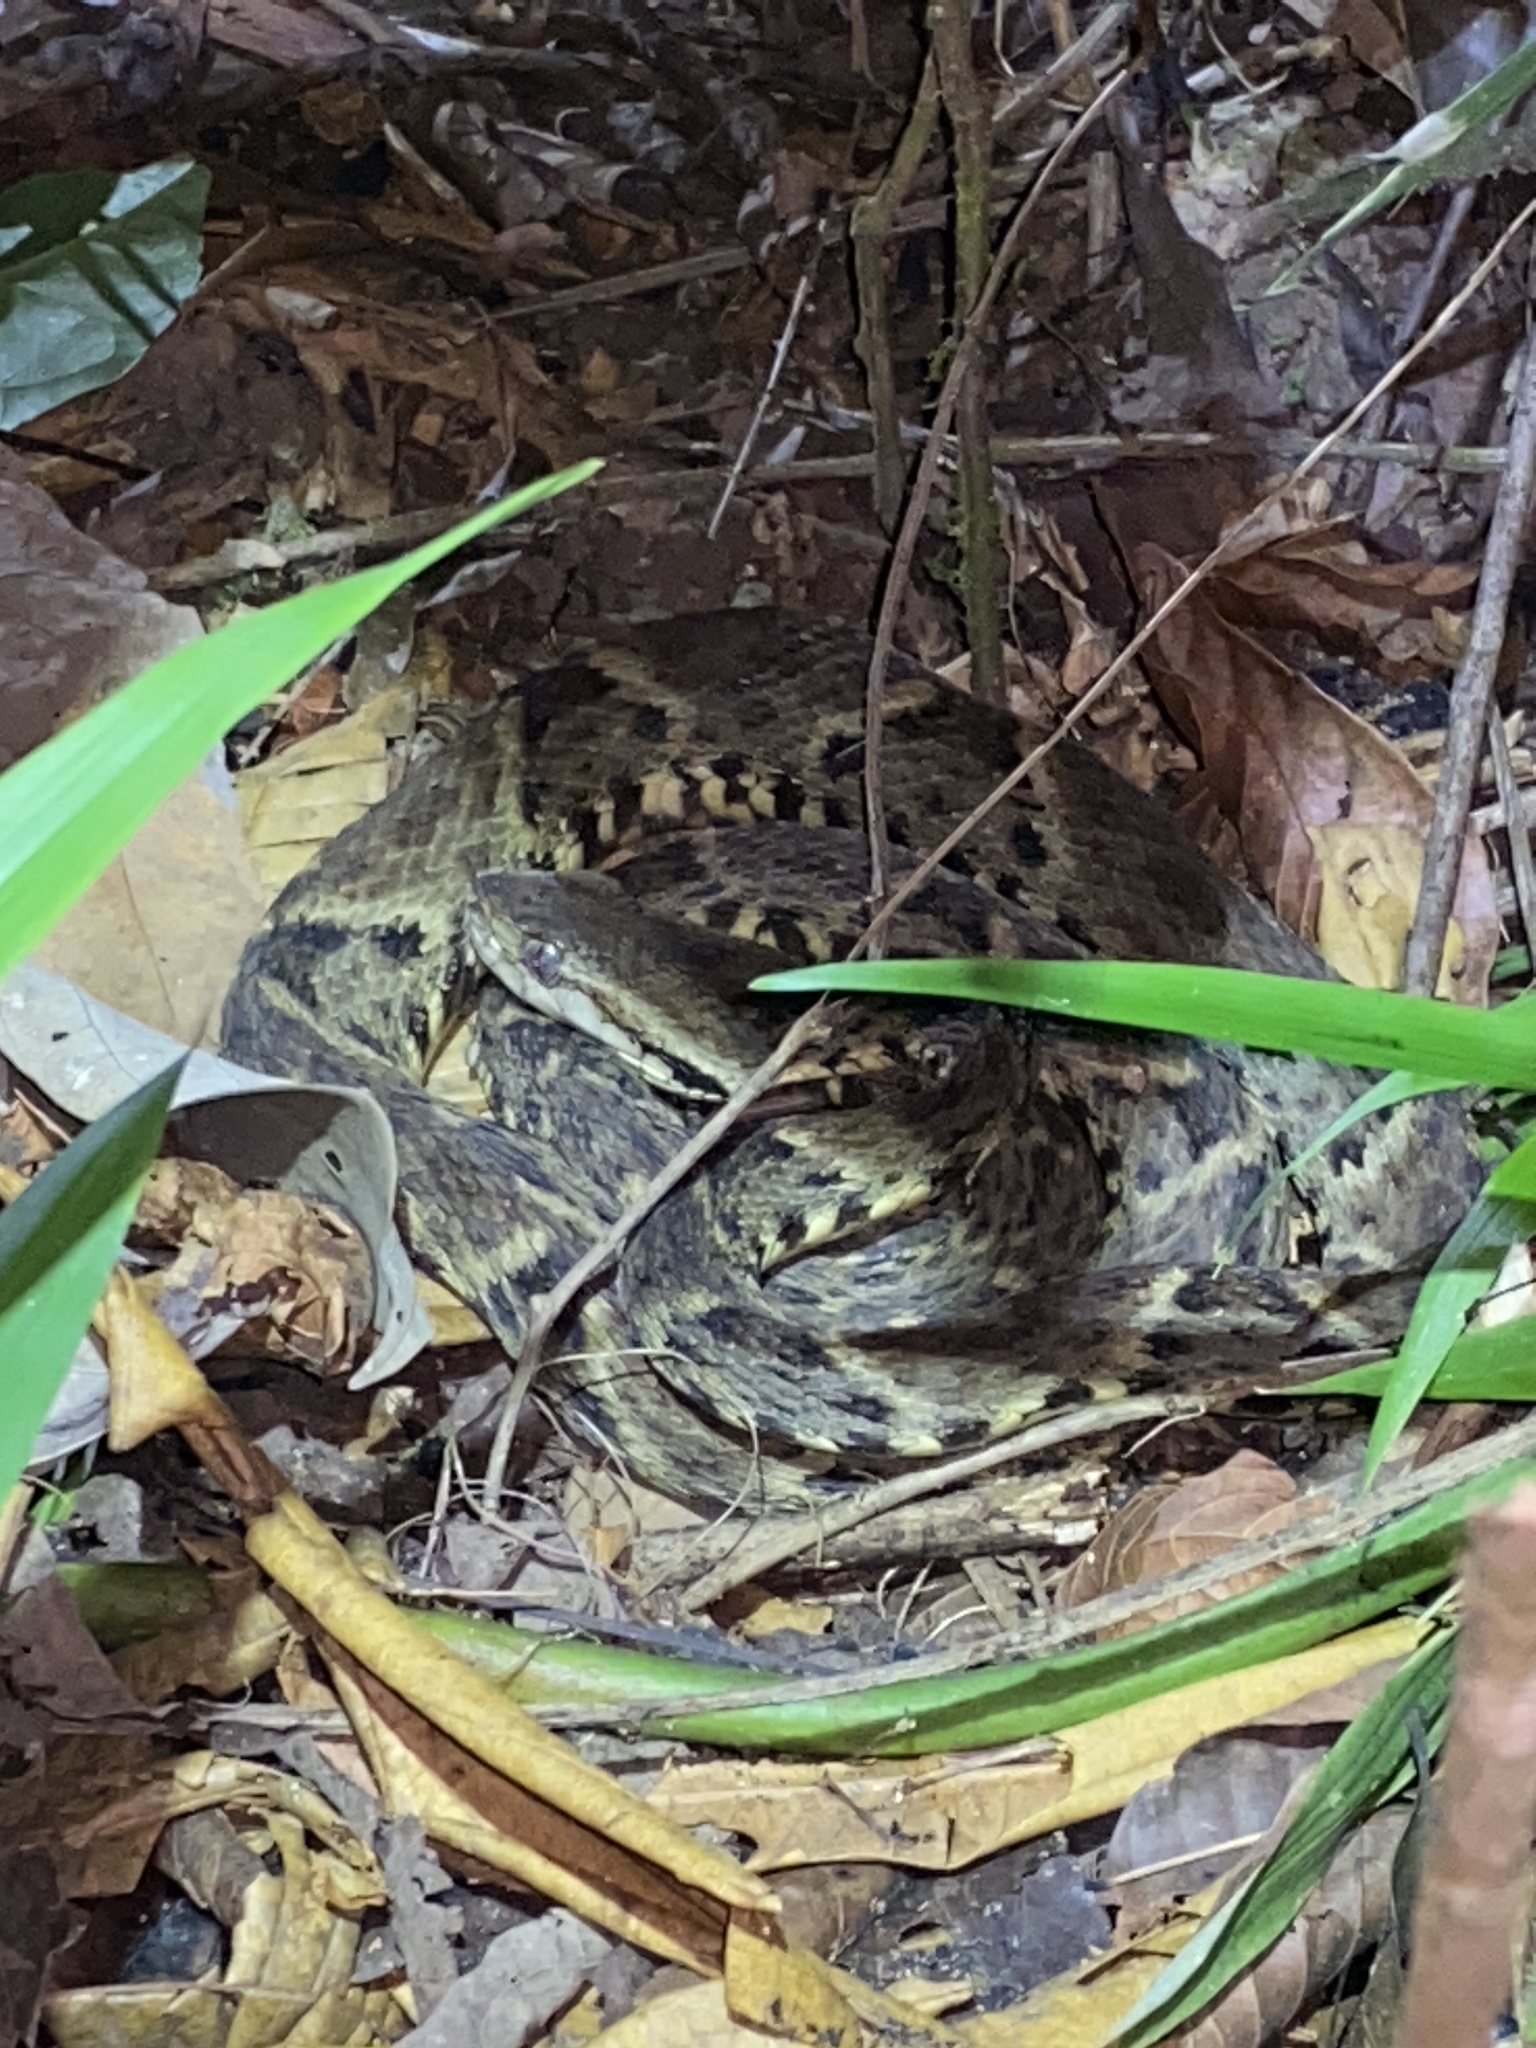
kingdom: Animalia
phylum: Chordata
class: Squamata
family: Viperidae
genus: Bothrops
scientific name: Bothrops atrox
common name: Common lancehead
